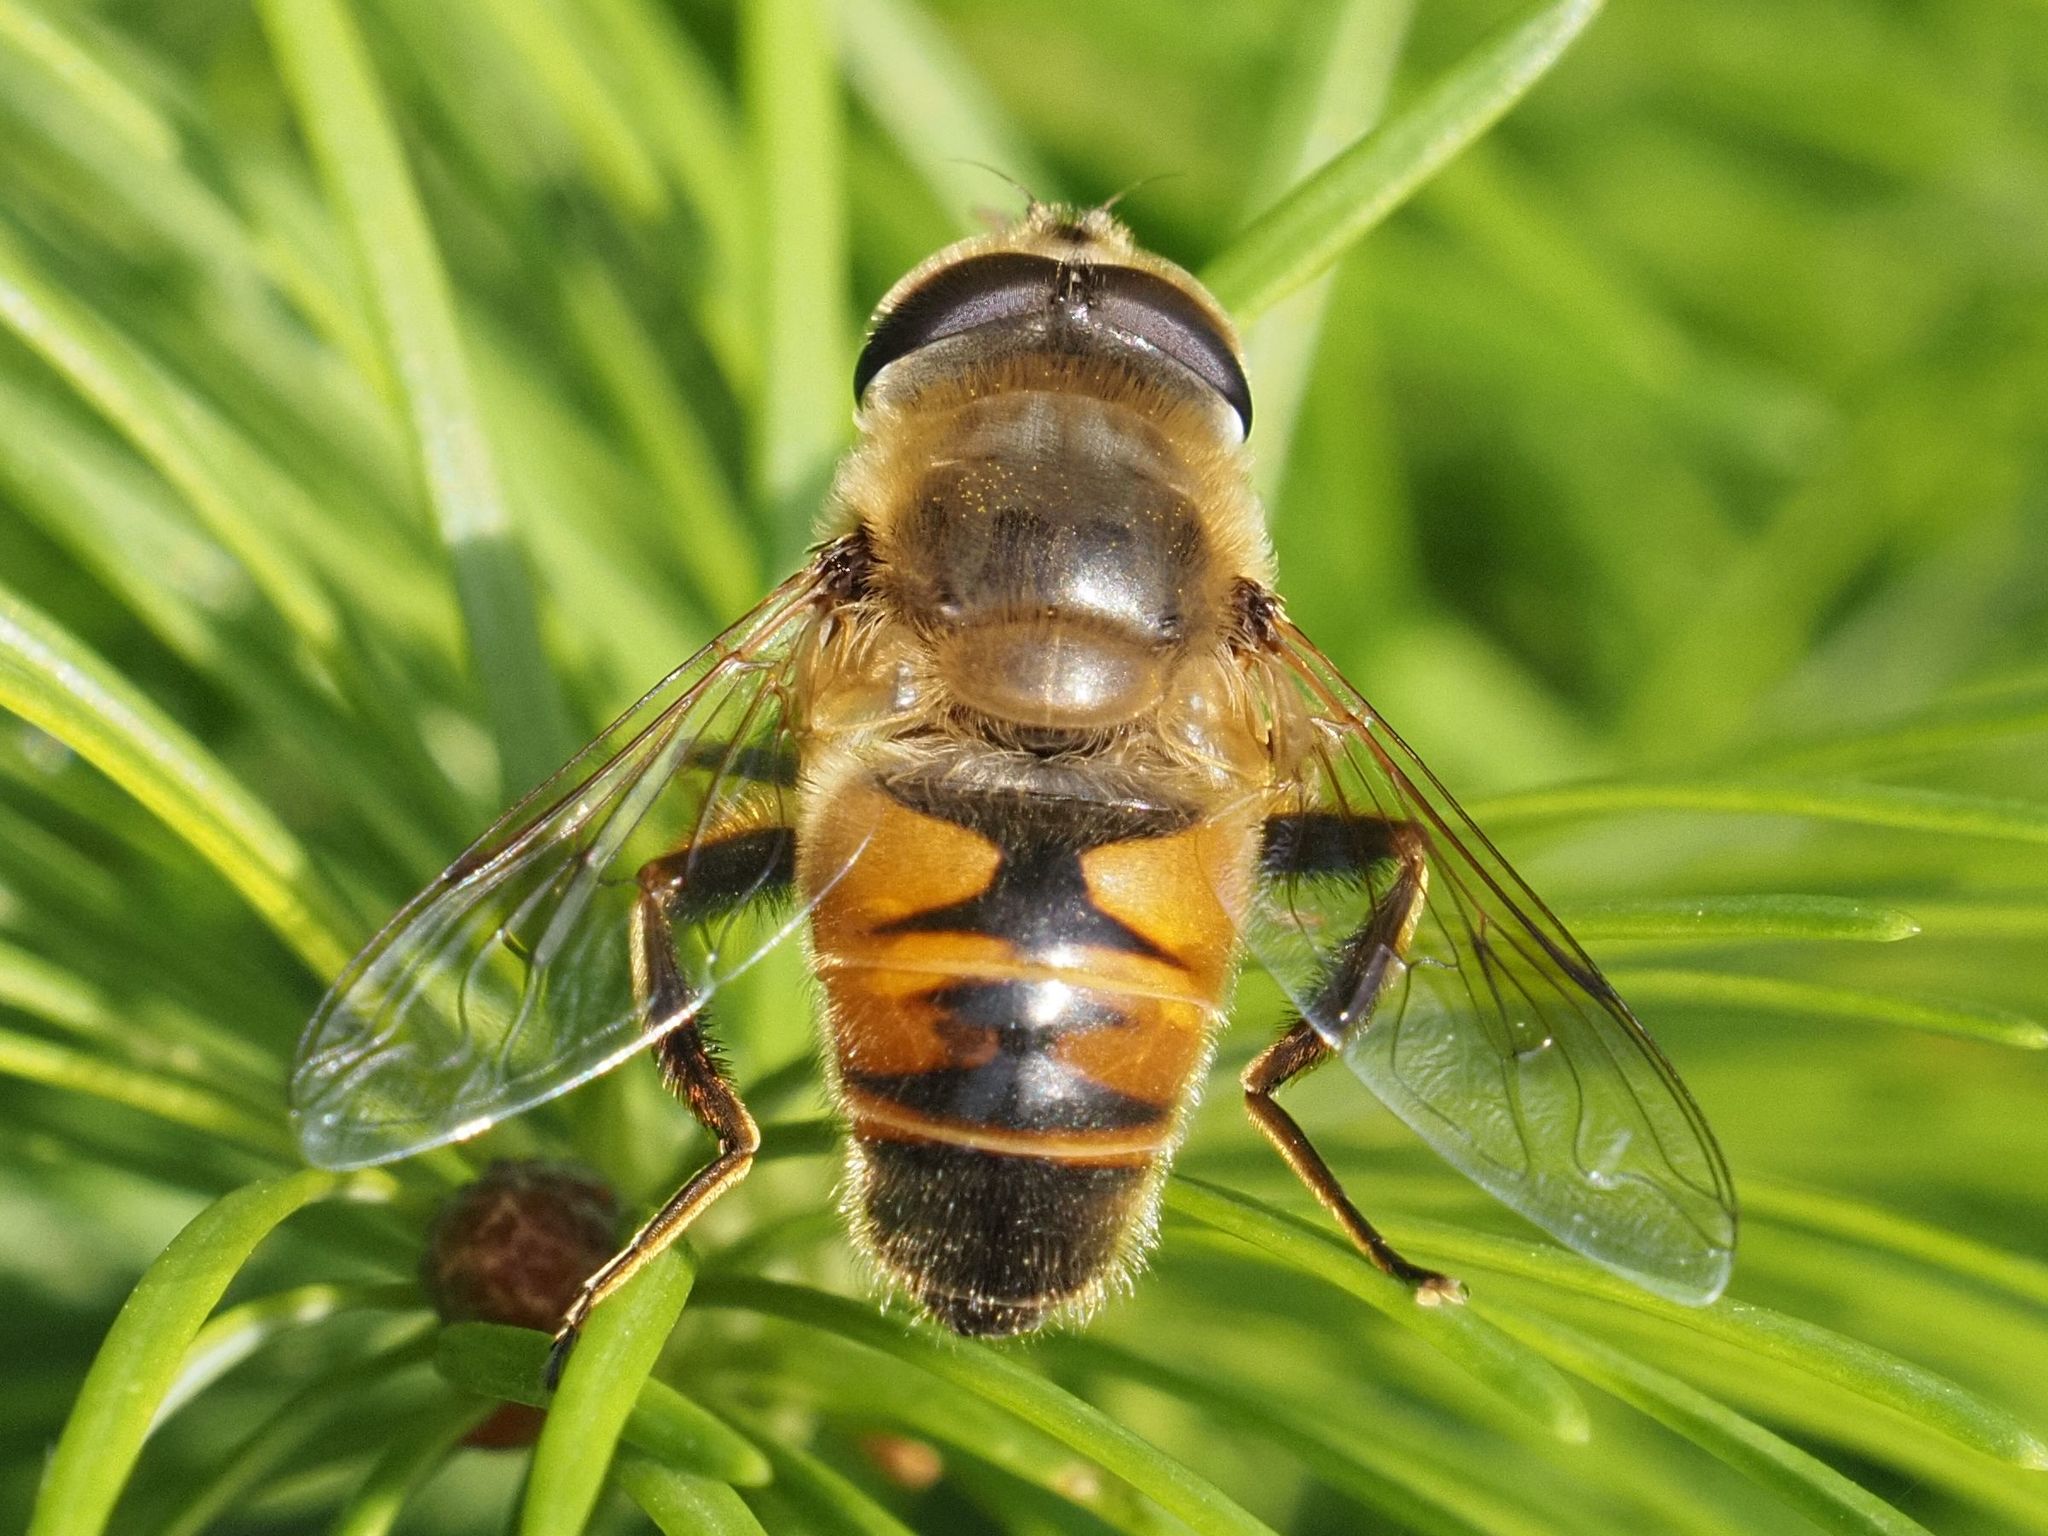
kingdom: Animalia
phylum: Arthropoda
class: Insecta
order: Diptera
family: Syrphidae
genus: Eristalis
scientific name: Eristalis tenax
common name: Drone fly
